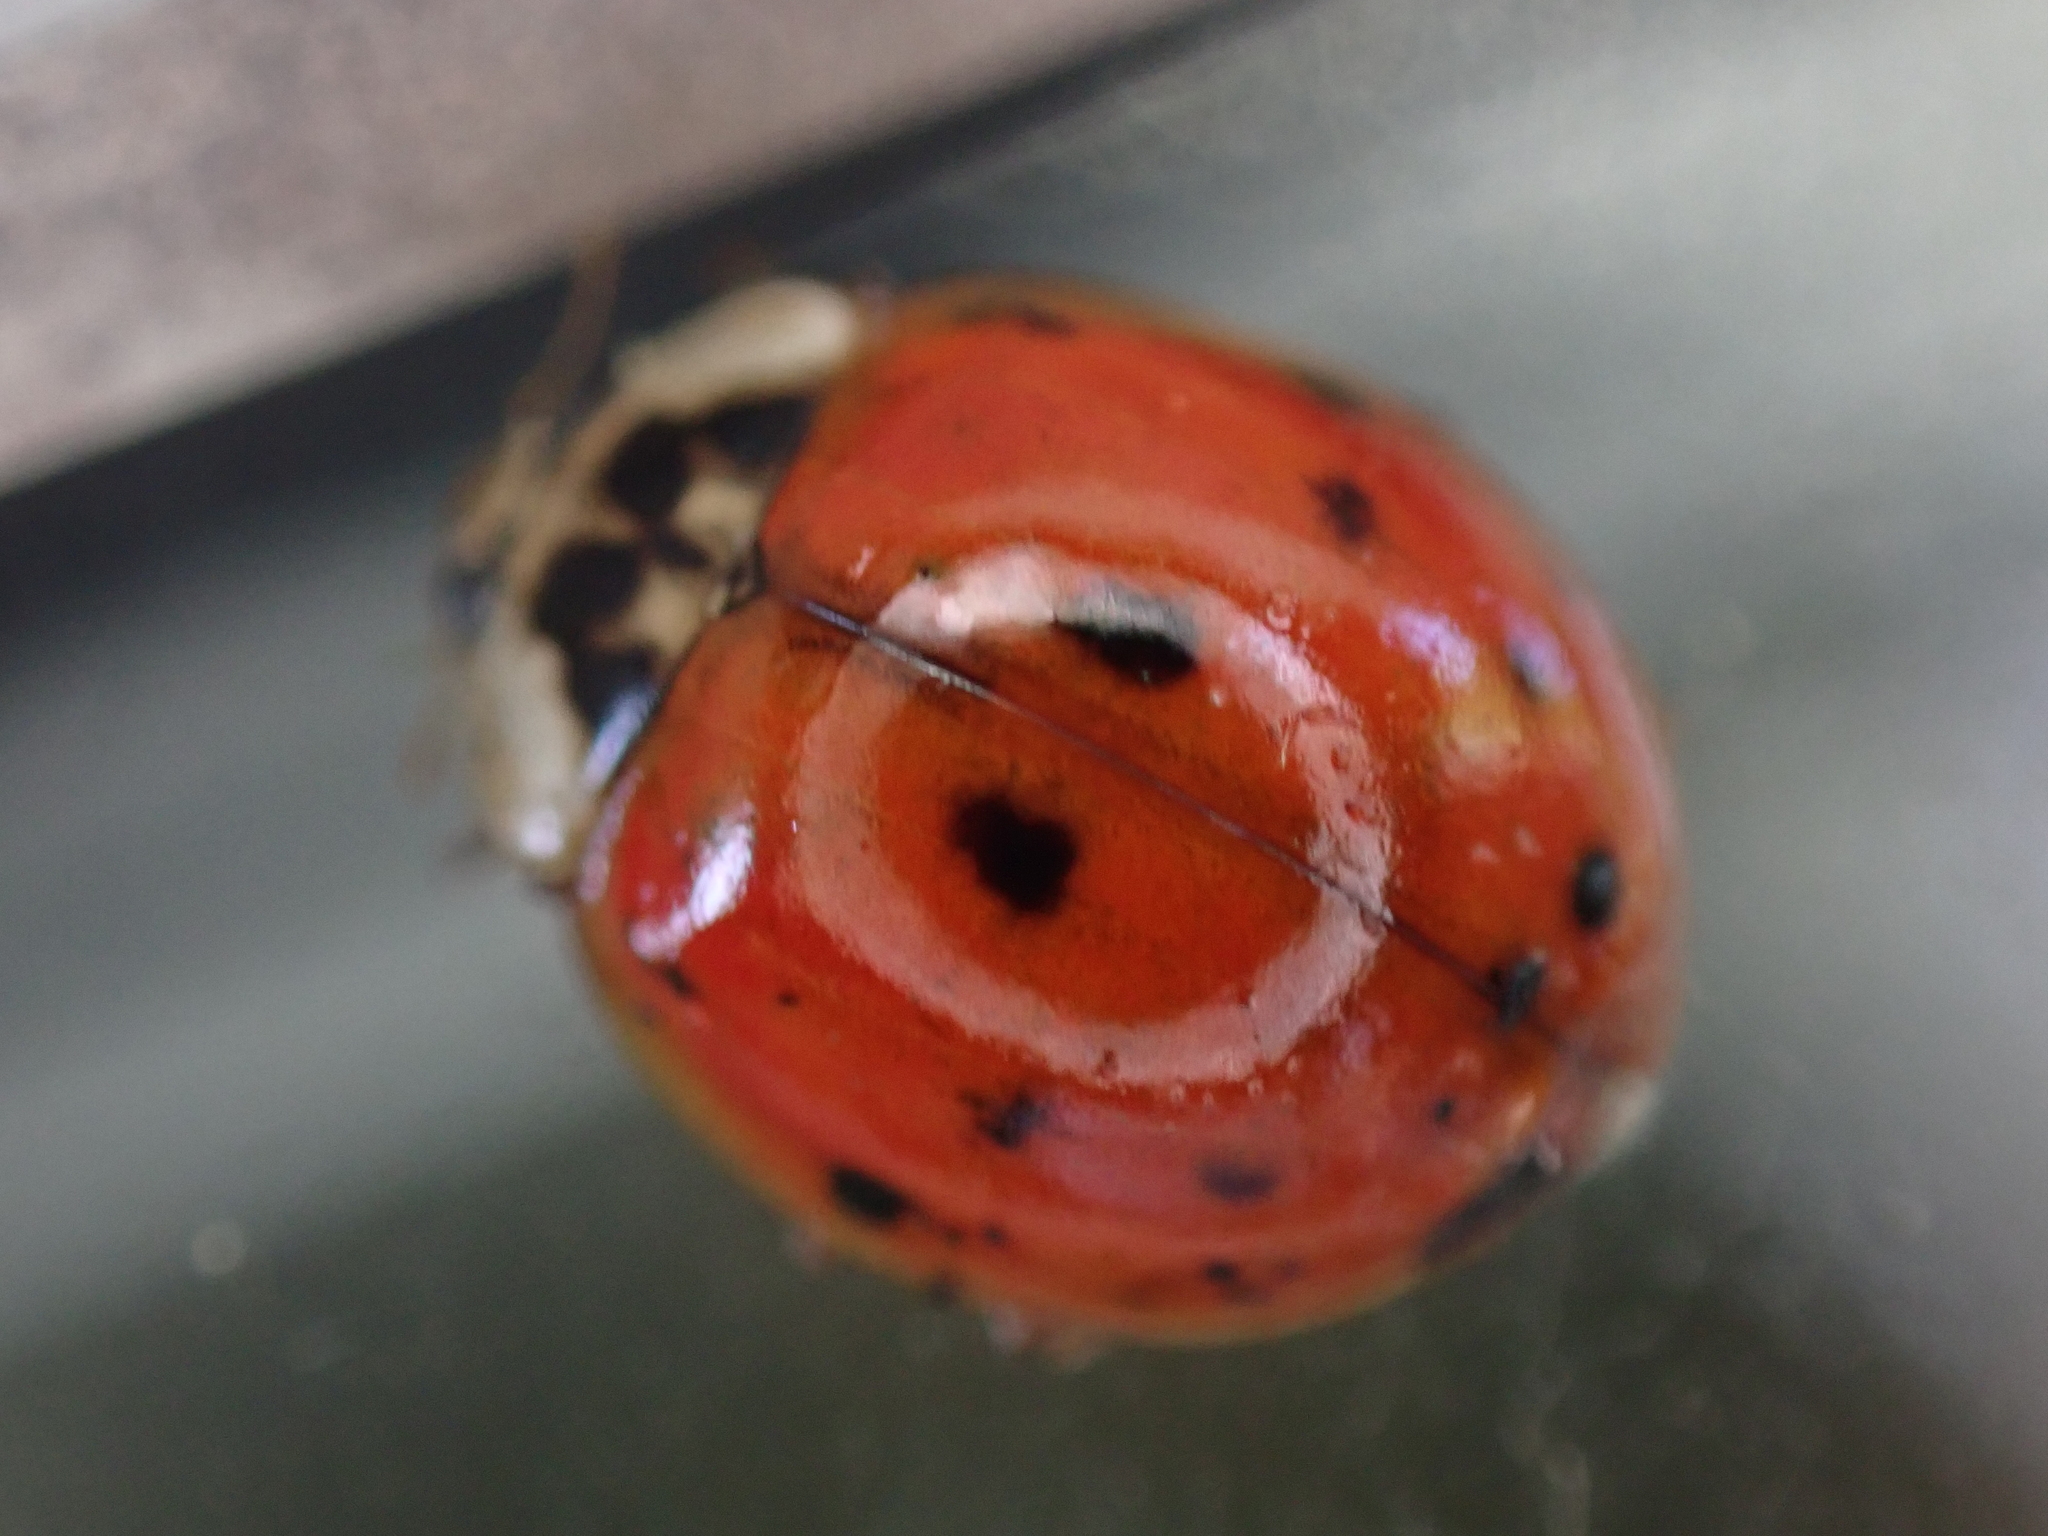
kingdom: Animalia
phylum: Arthropoda
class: Insecta
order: Coleoptera
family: Coccinellidae
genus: Harmonia
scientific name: Harmonia axyridis
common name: Harlequin ladybird
